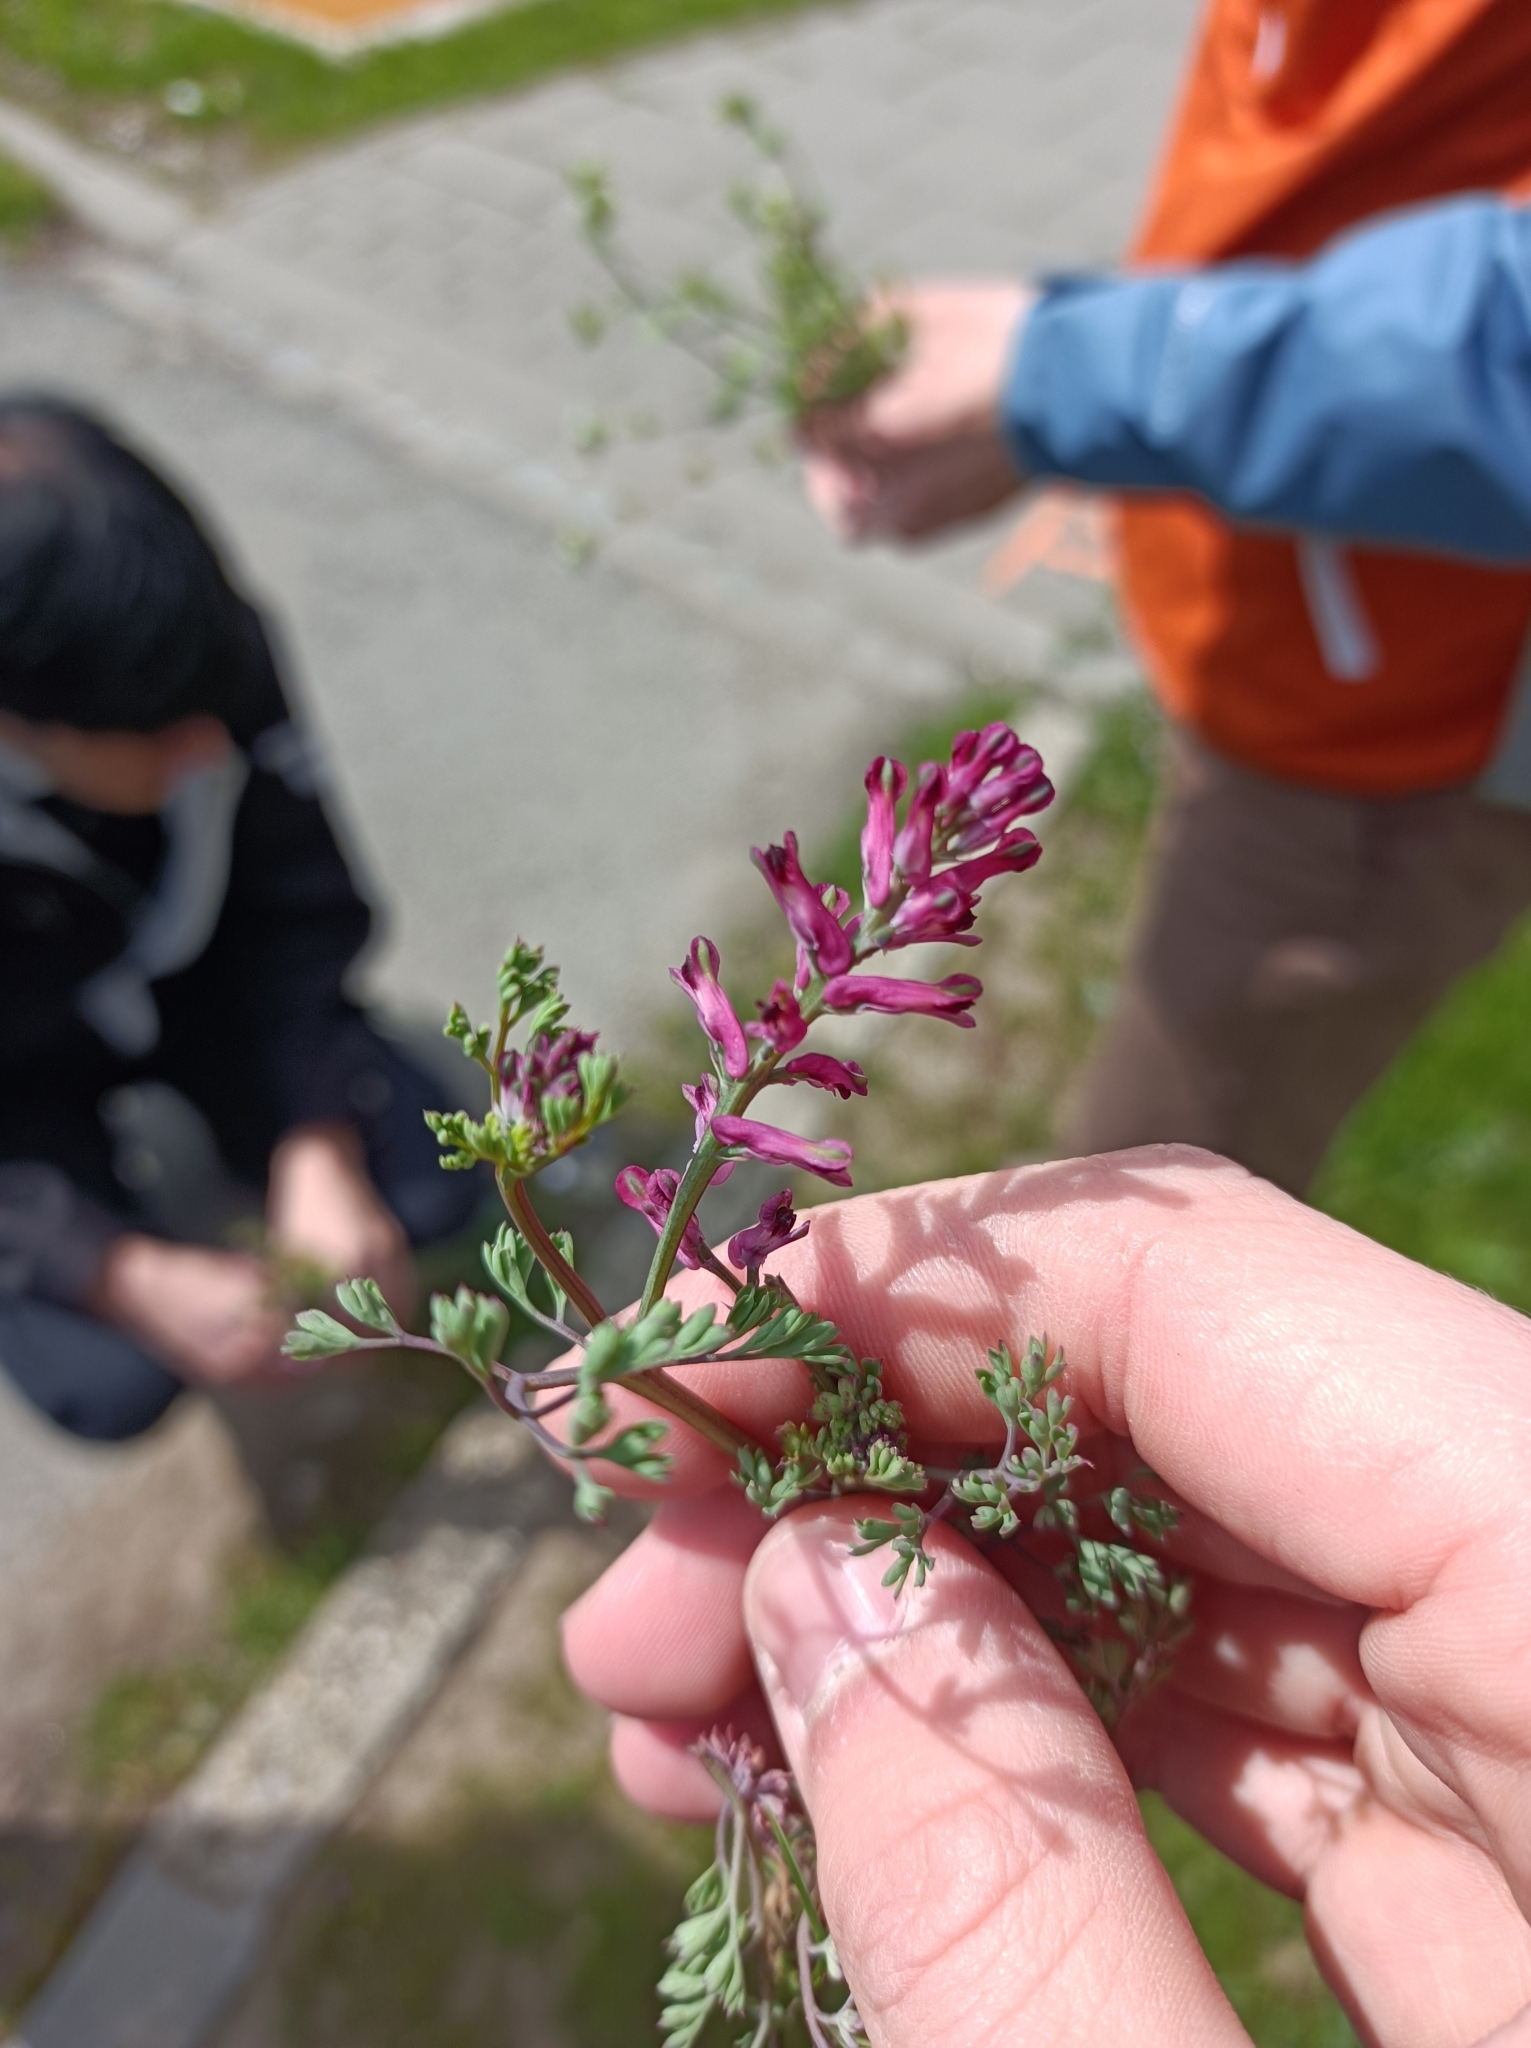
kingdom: Plantae
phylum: Tracheophyta
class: Magnoliopsida
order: Ranunculales
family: Papaveraceae
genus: Fumaria
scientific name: Fumaria officinalis
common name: Common fumitory
